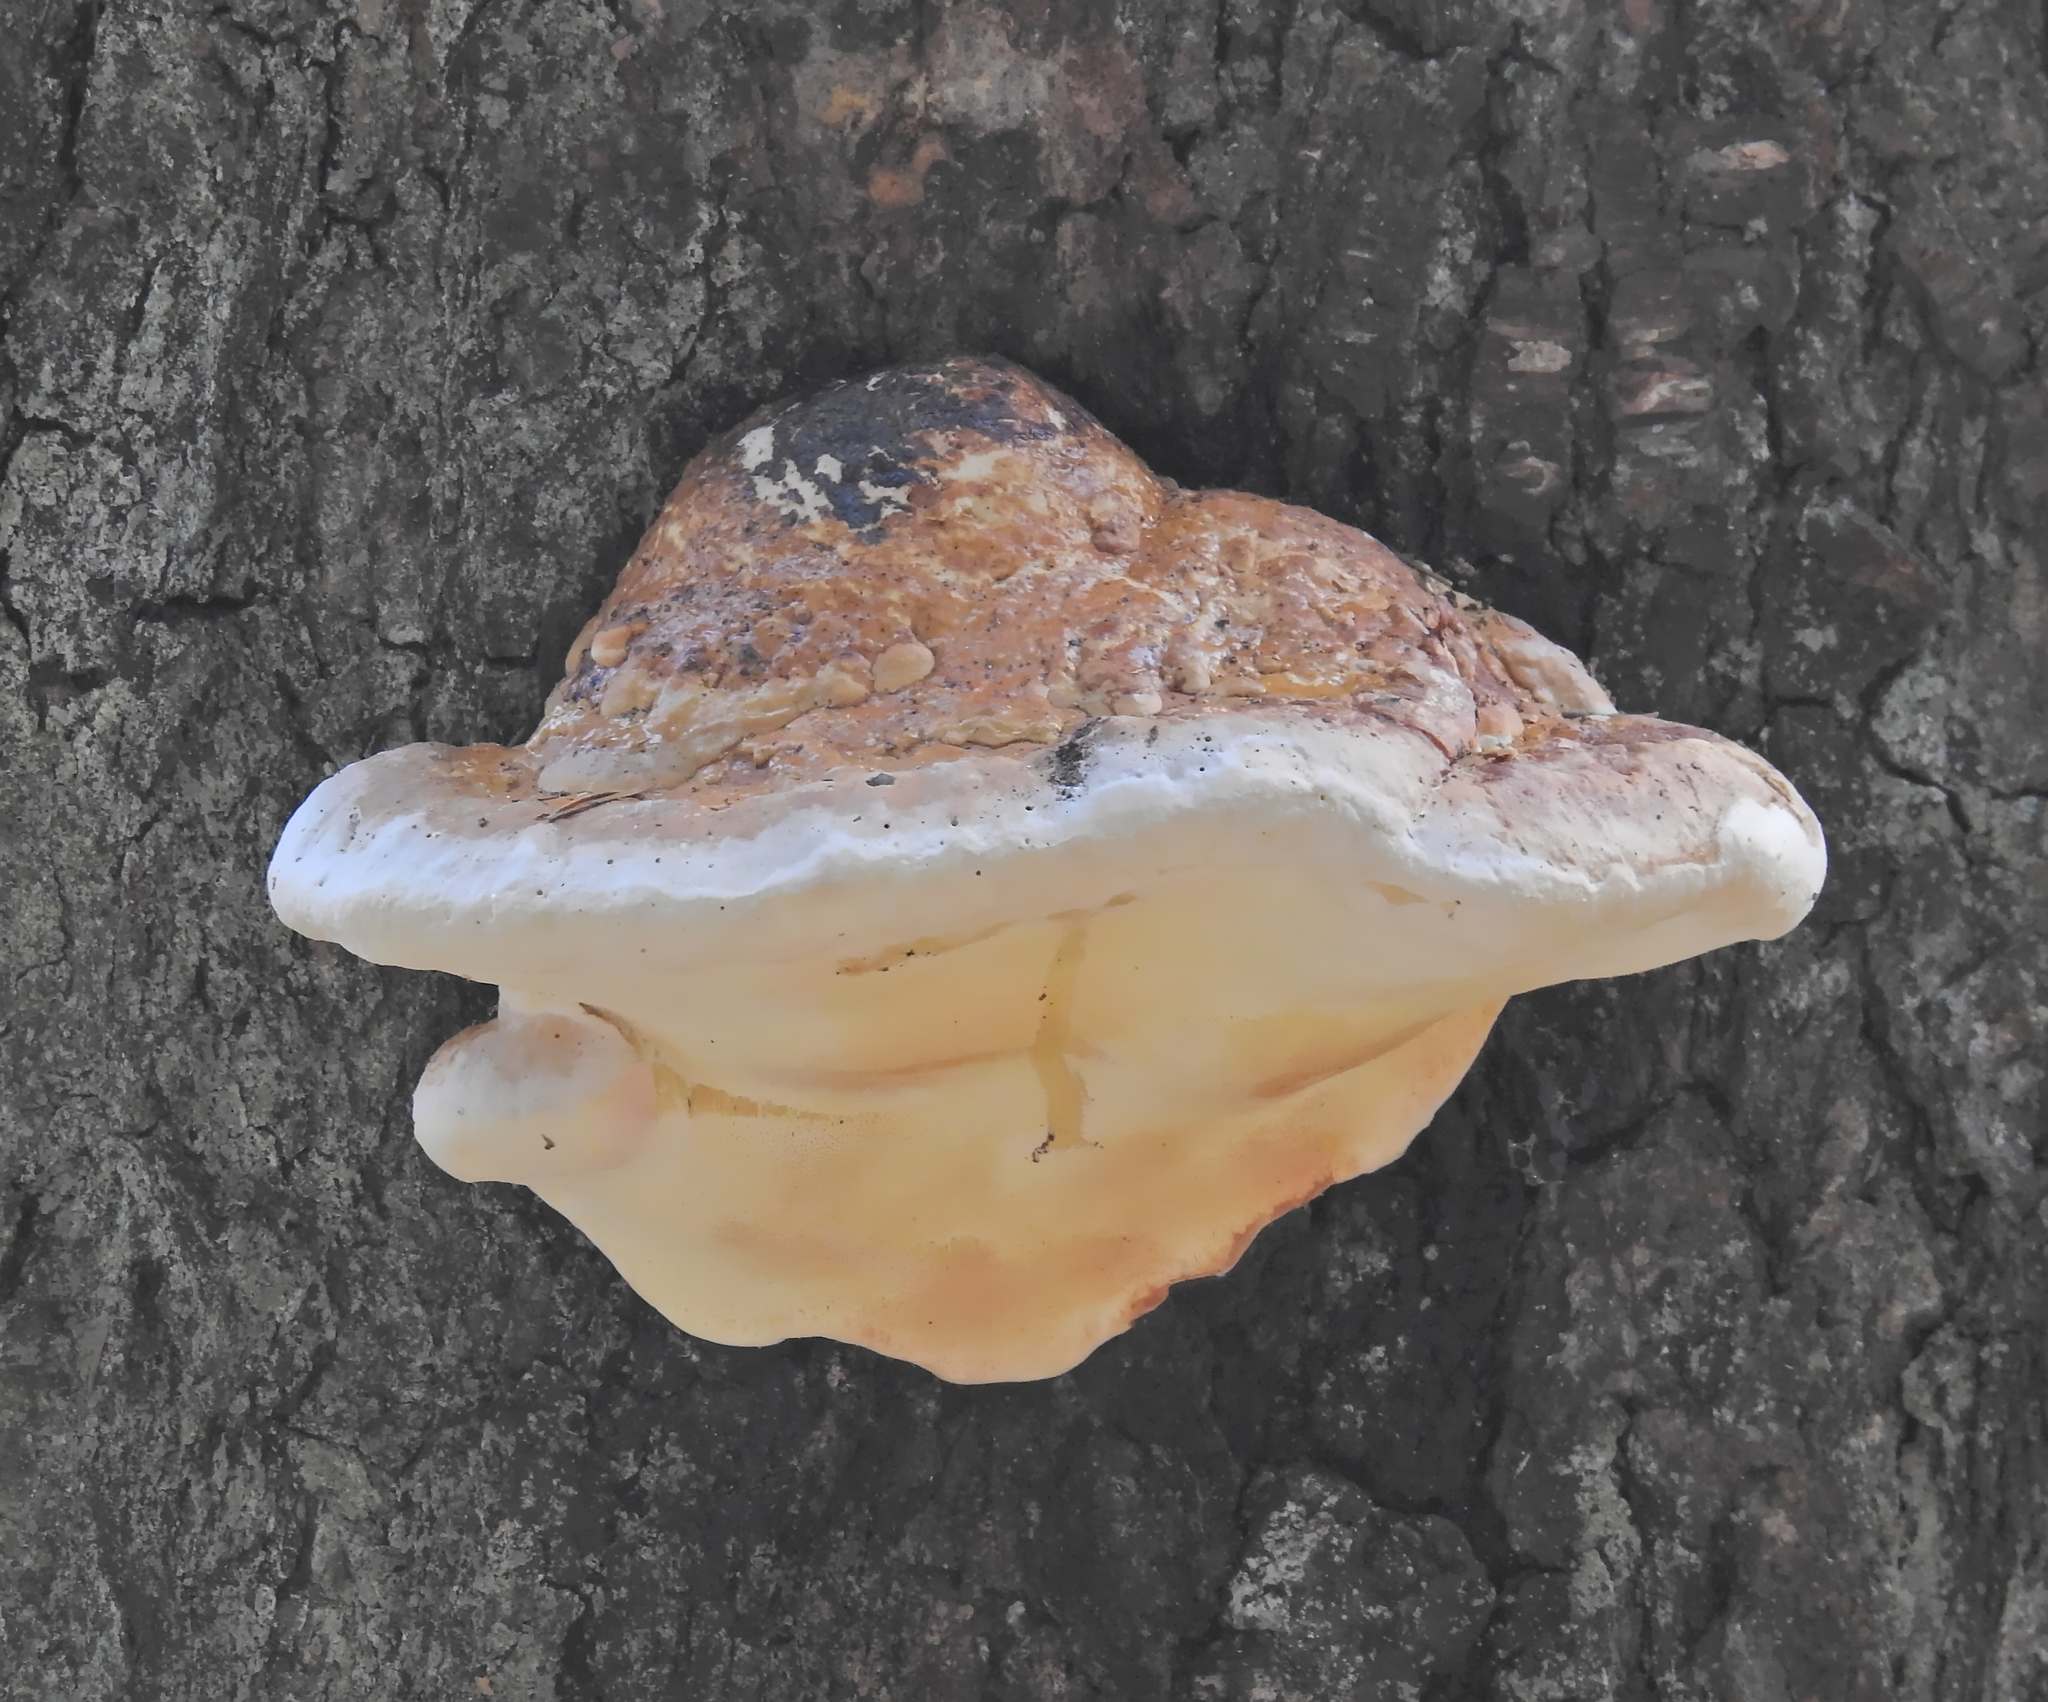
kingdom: Fungi
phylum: Basidiomycota
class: Agaricomycetes
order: Polyporales
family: Fomitopsidaceae
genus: Fomitopsis
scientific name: Fomitopsis pinicola
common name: Red-belted bracket
